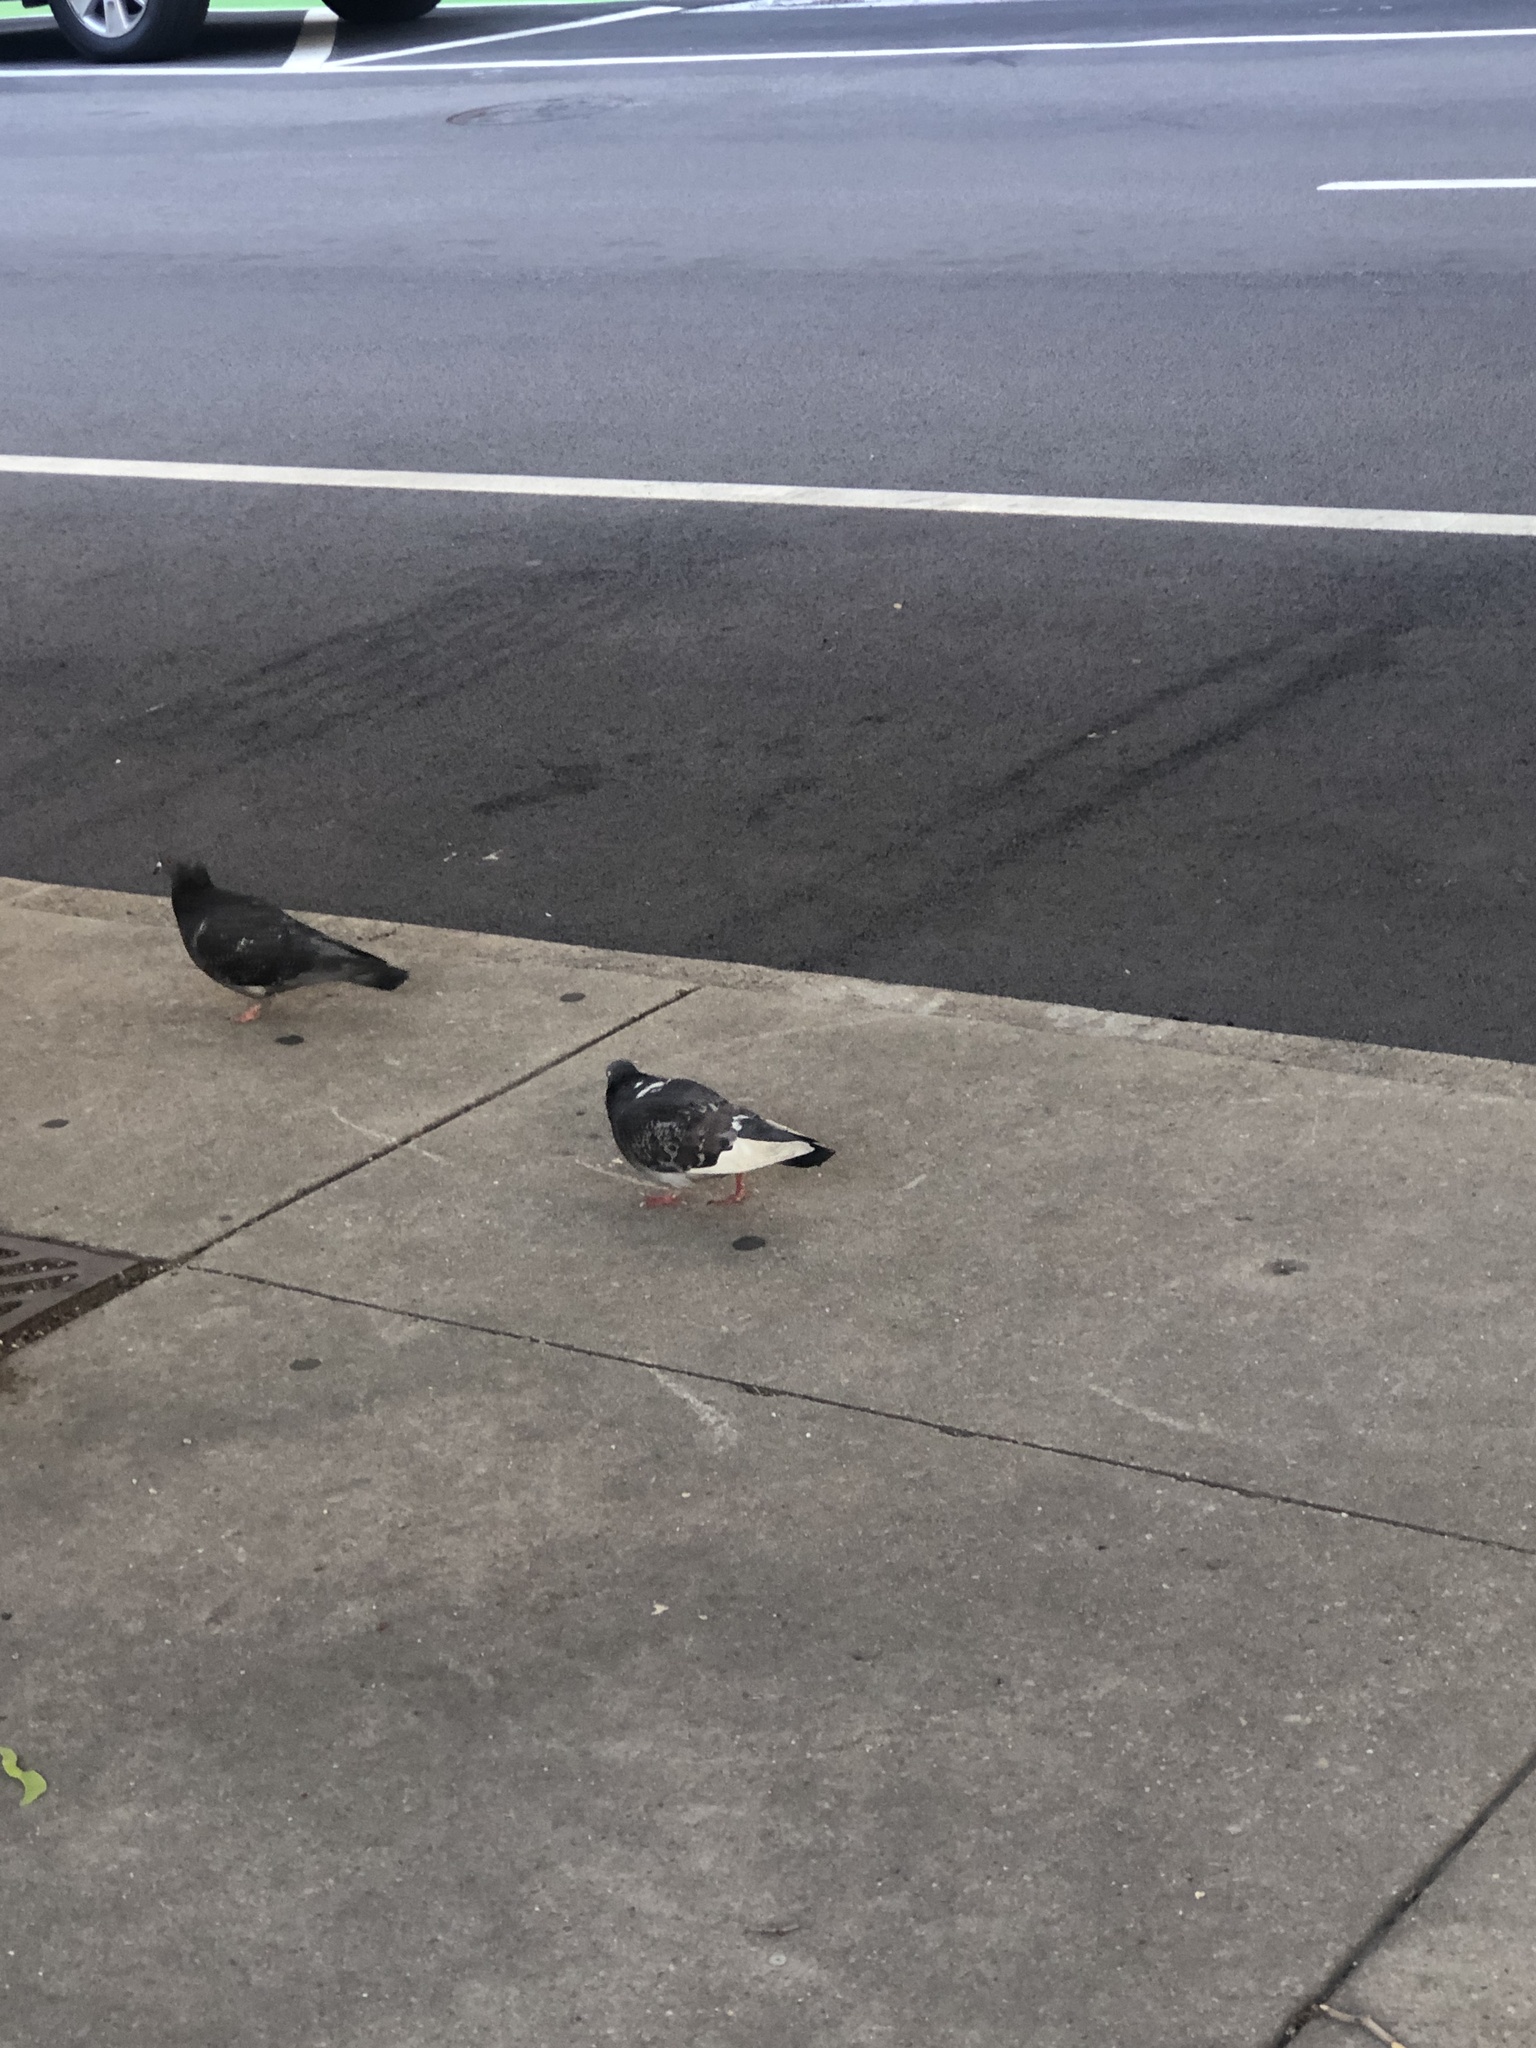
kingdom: Animalia
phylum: Chordata
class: Aves
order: Columbiformes
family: Columbidae
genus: Columba
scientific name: Columba livia
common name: Rock pigeon
